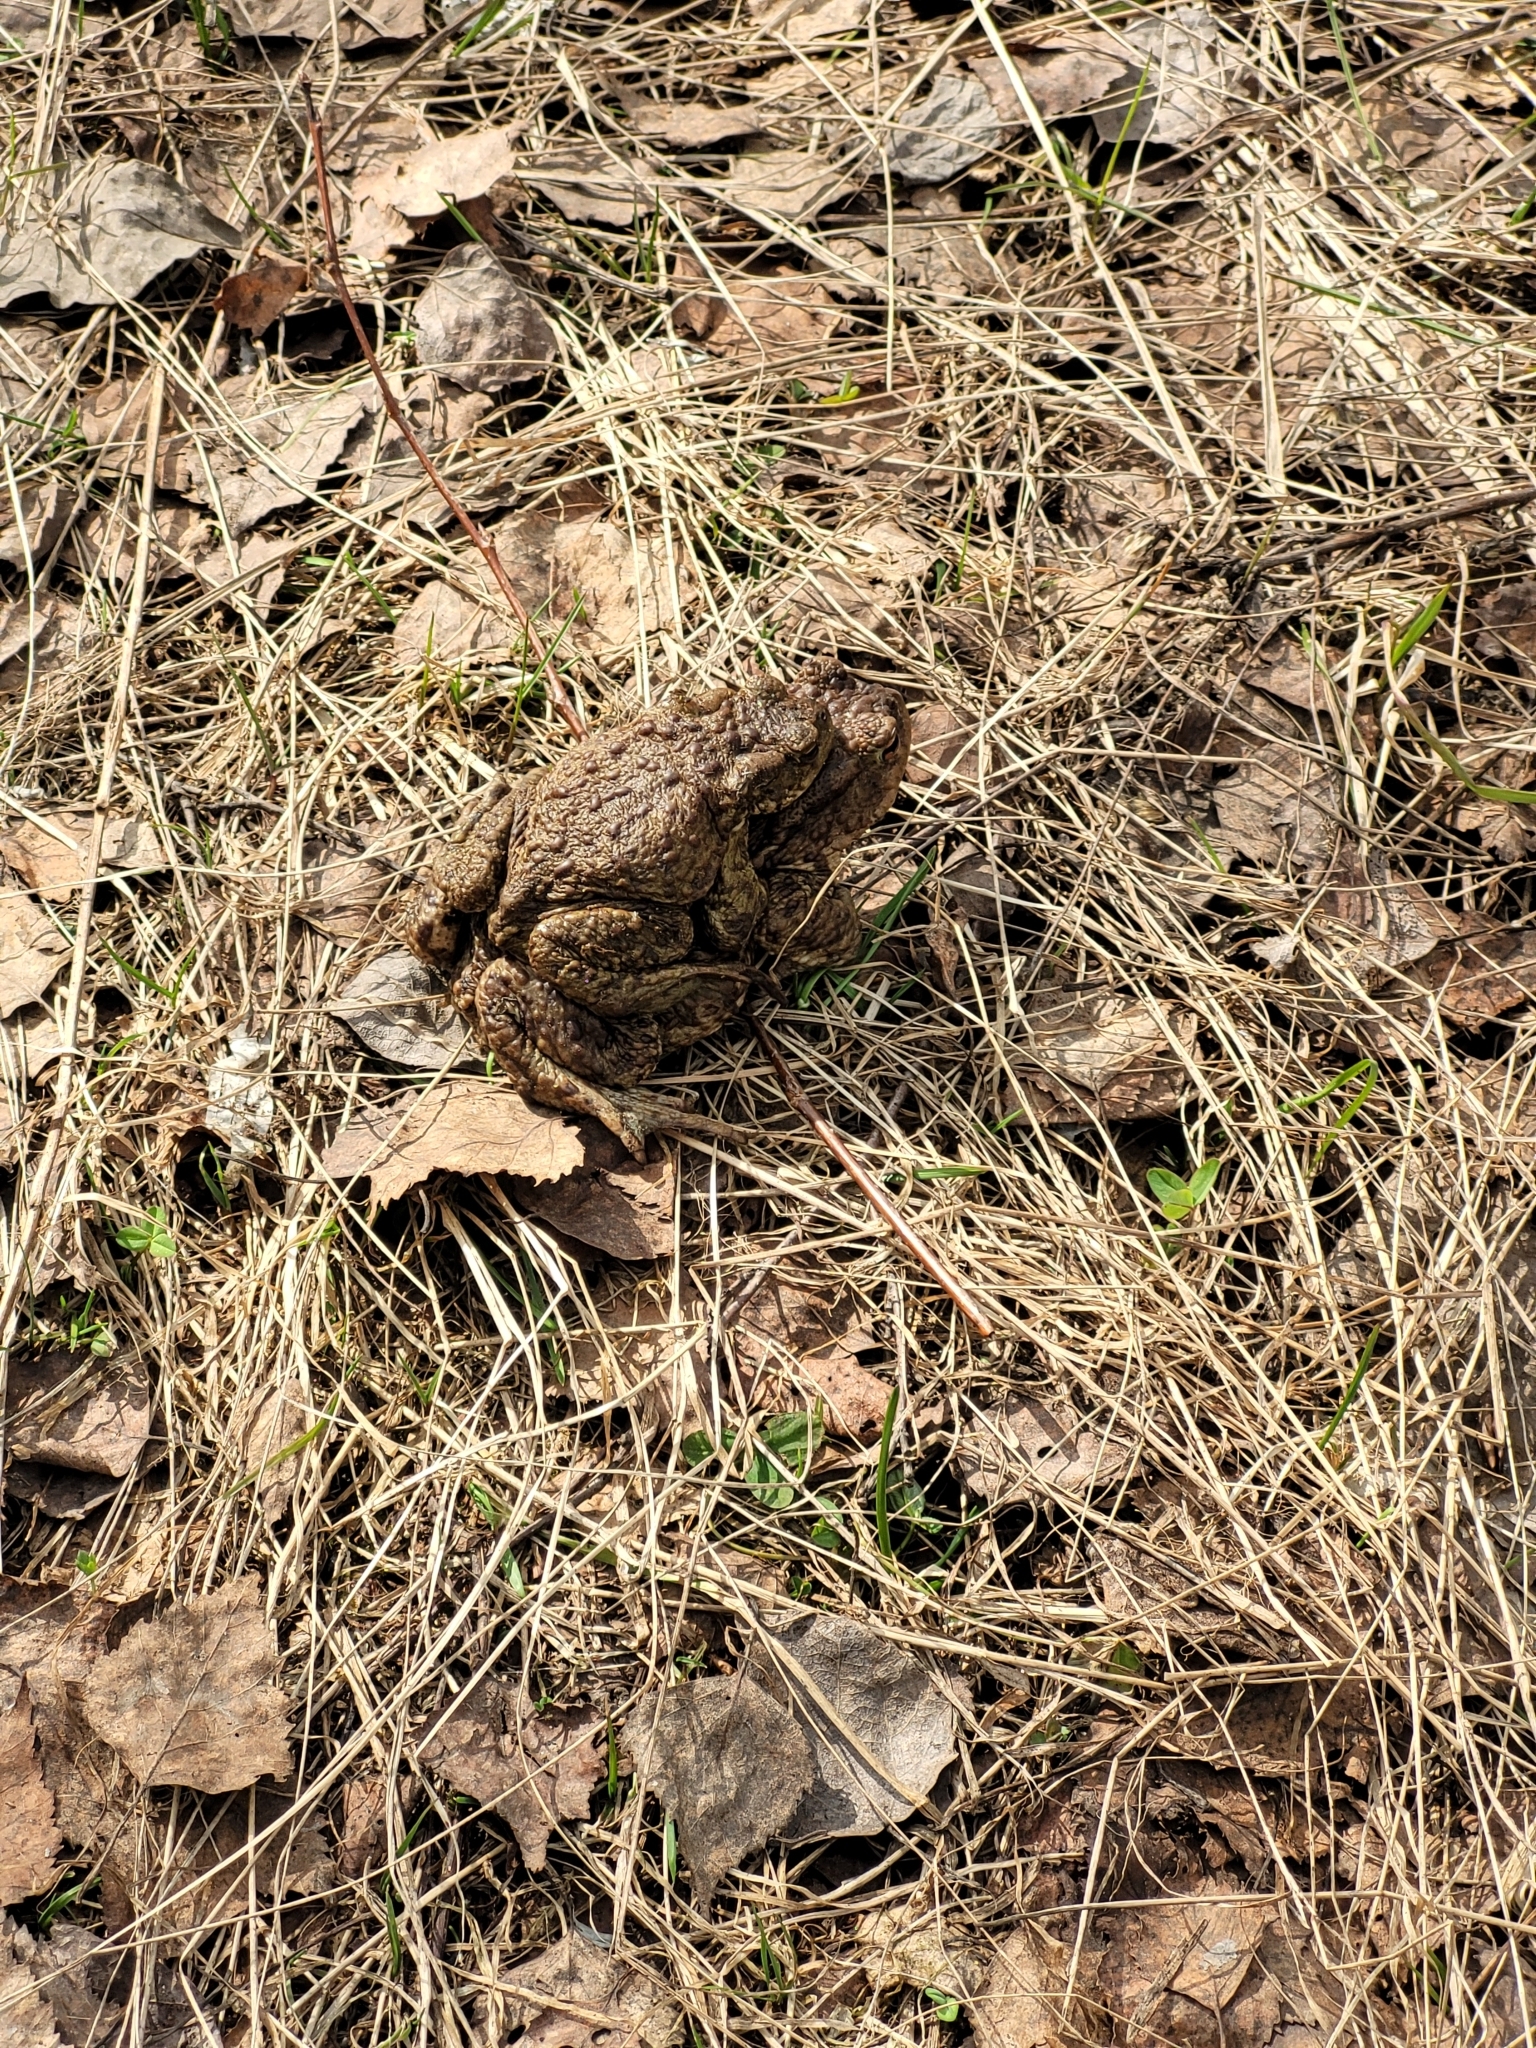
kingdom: Animalia
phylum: Chordata
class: Amphibia
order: Anura
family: Bufonidae
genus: Bufo
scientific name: Bufo bufo
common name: Common toad
